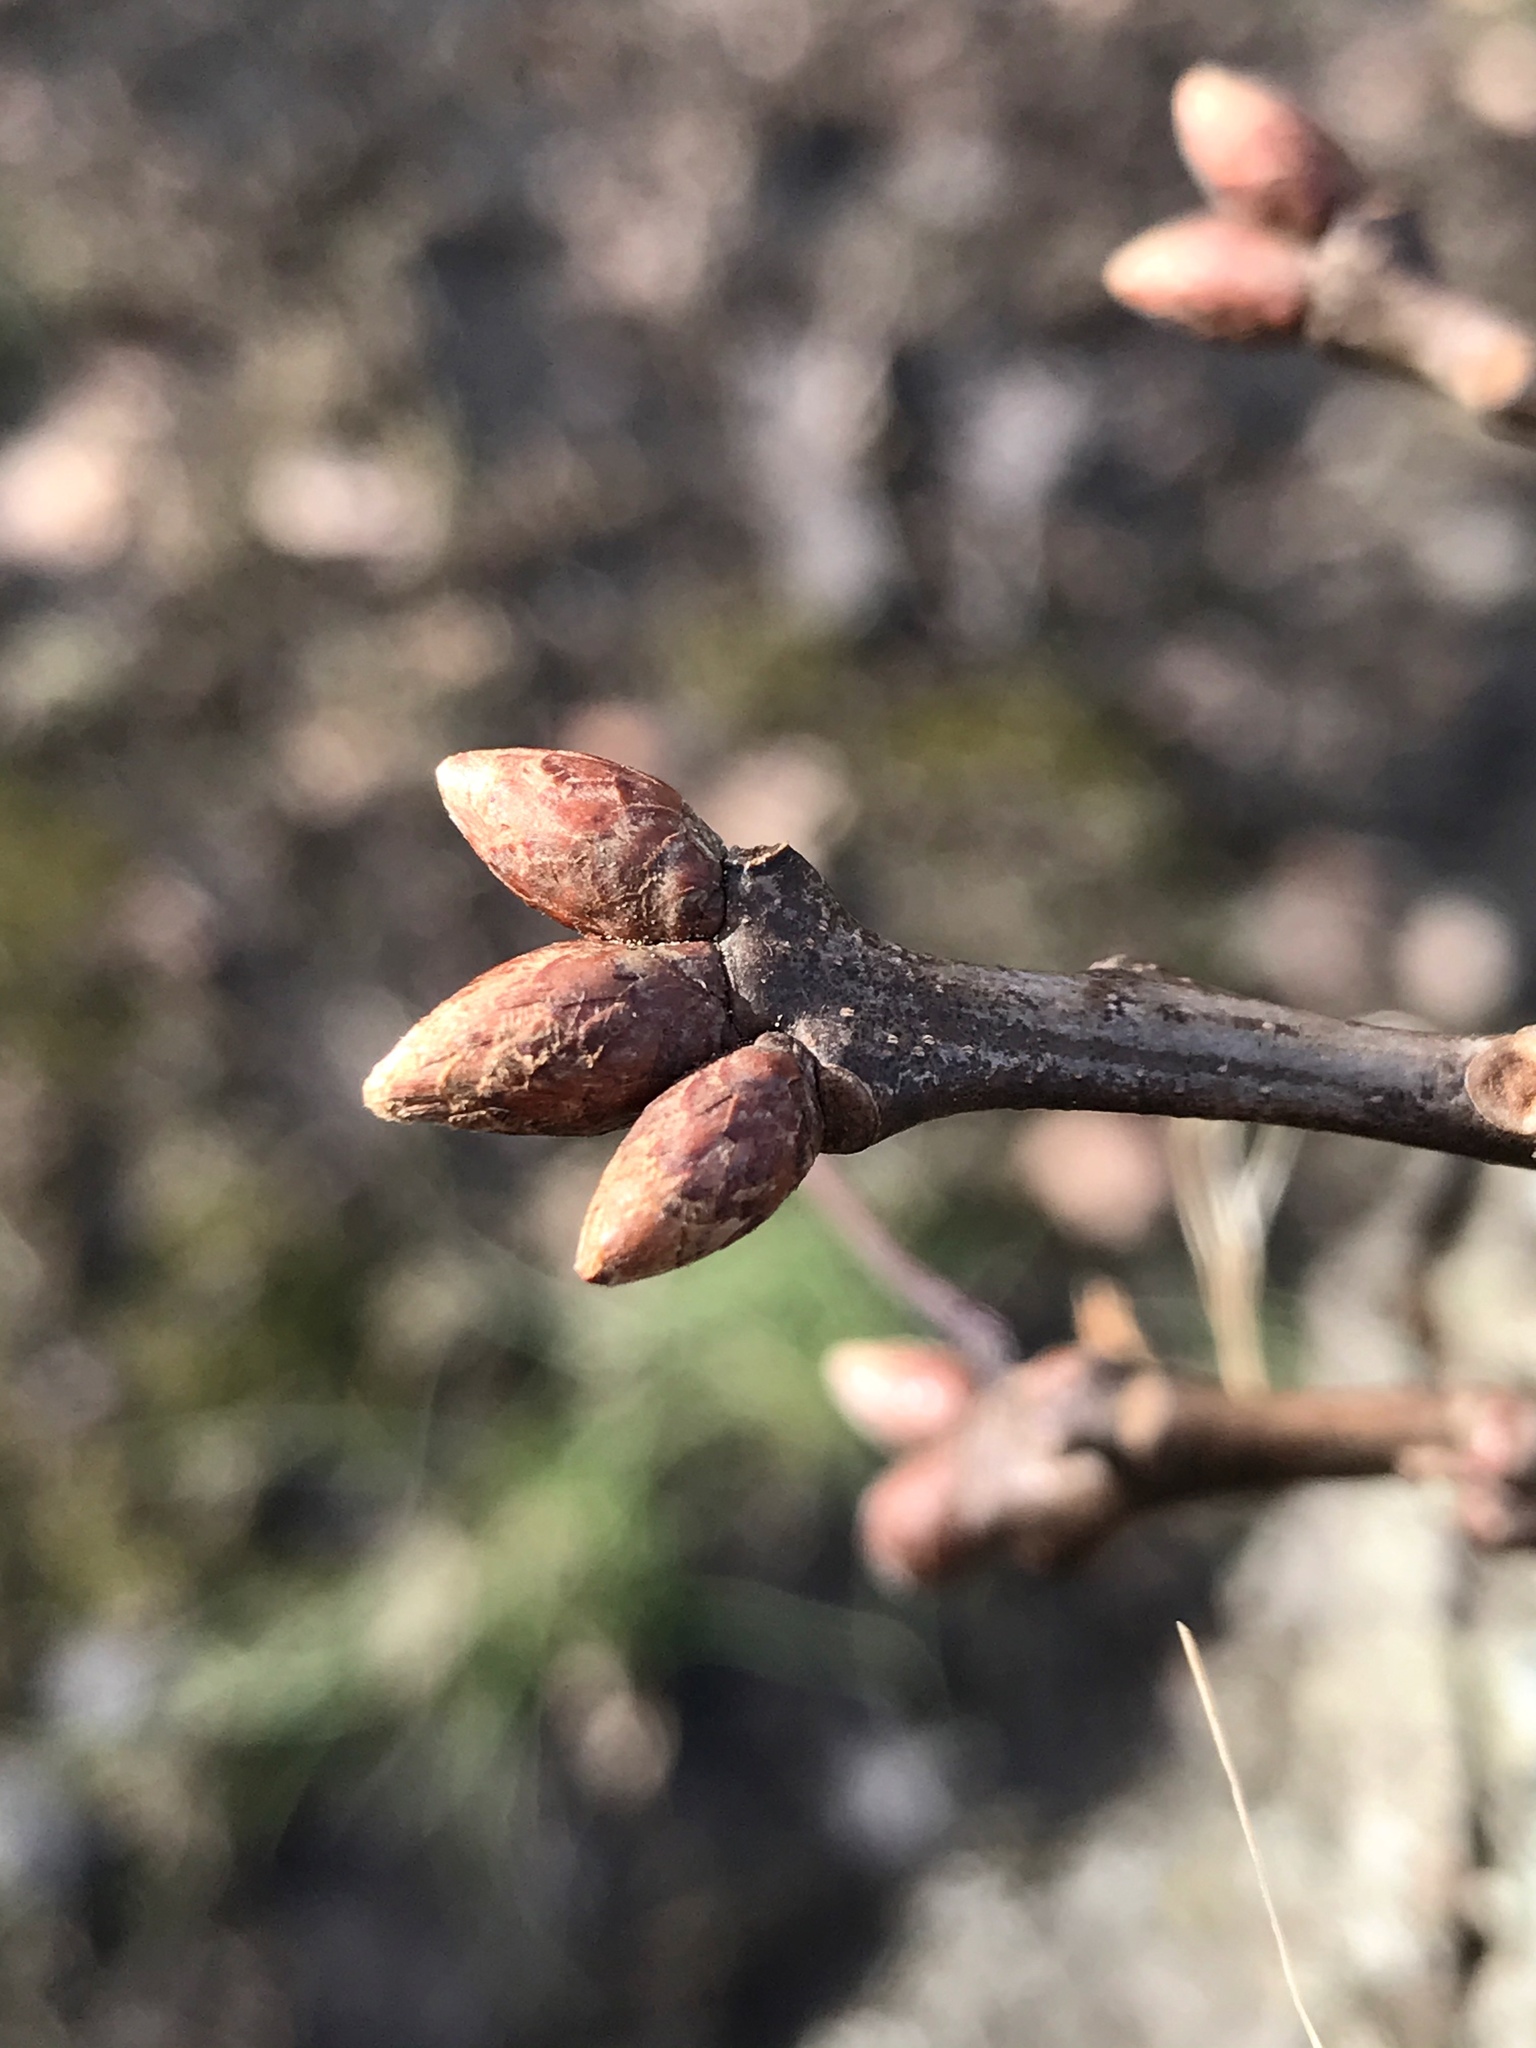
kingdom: Plantae
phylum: Tracheophyta
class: Magnoliopsida
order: Fagales
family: Fagaceae
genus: Quercus
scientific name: Quercus rubra
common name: Red oak
